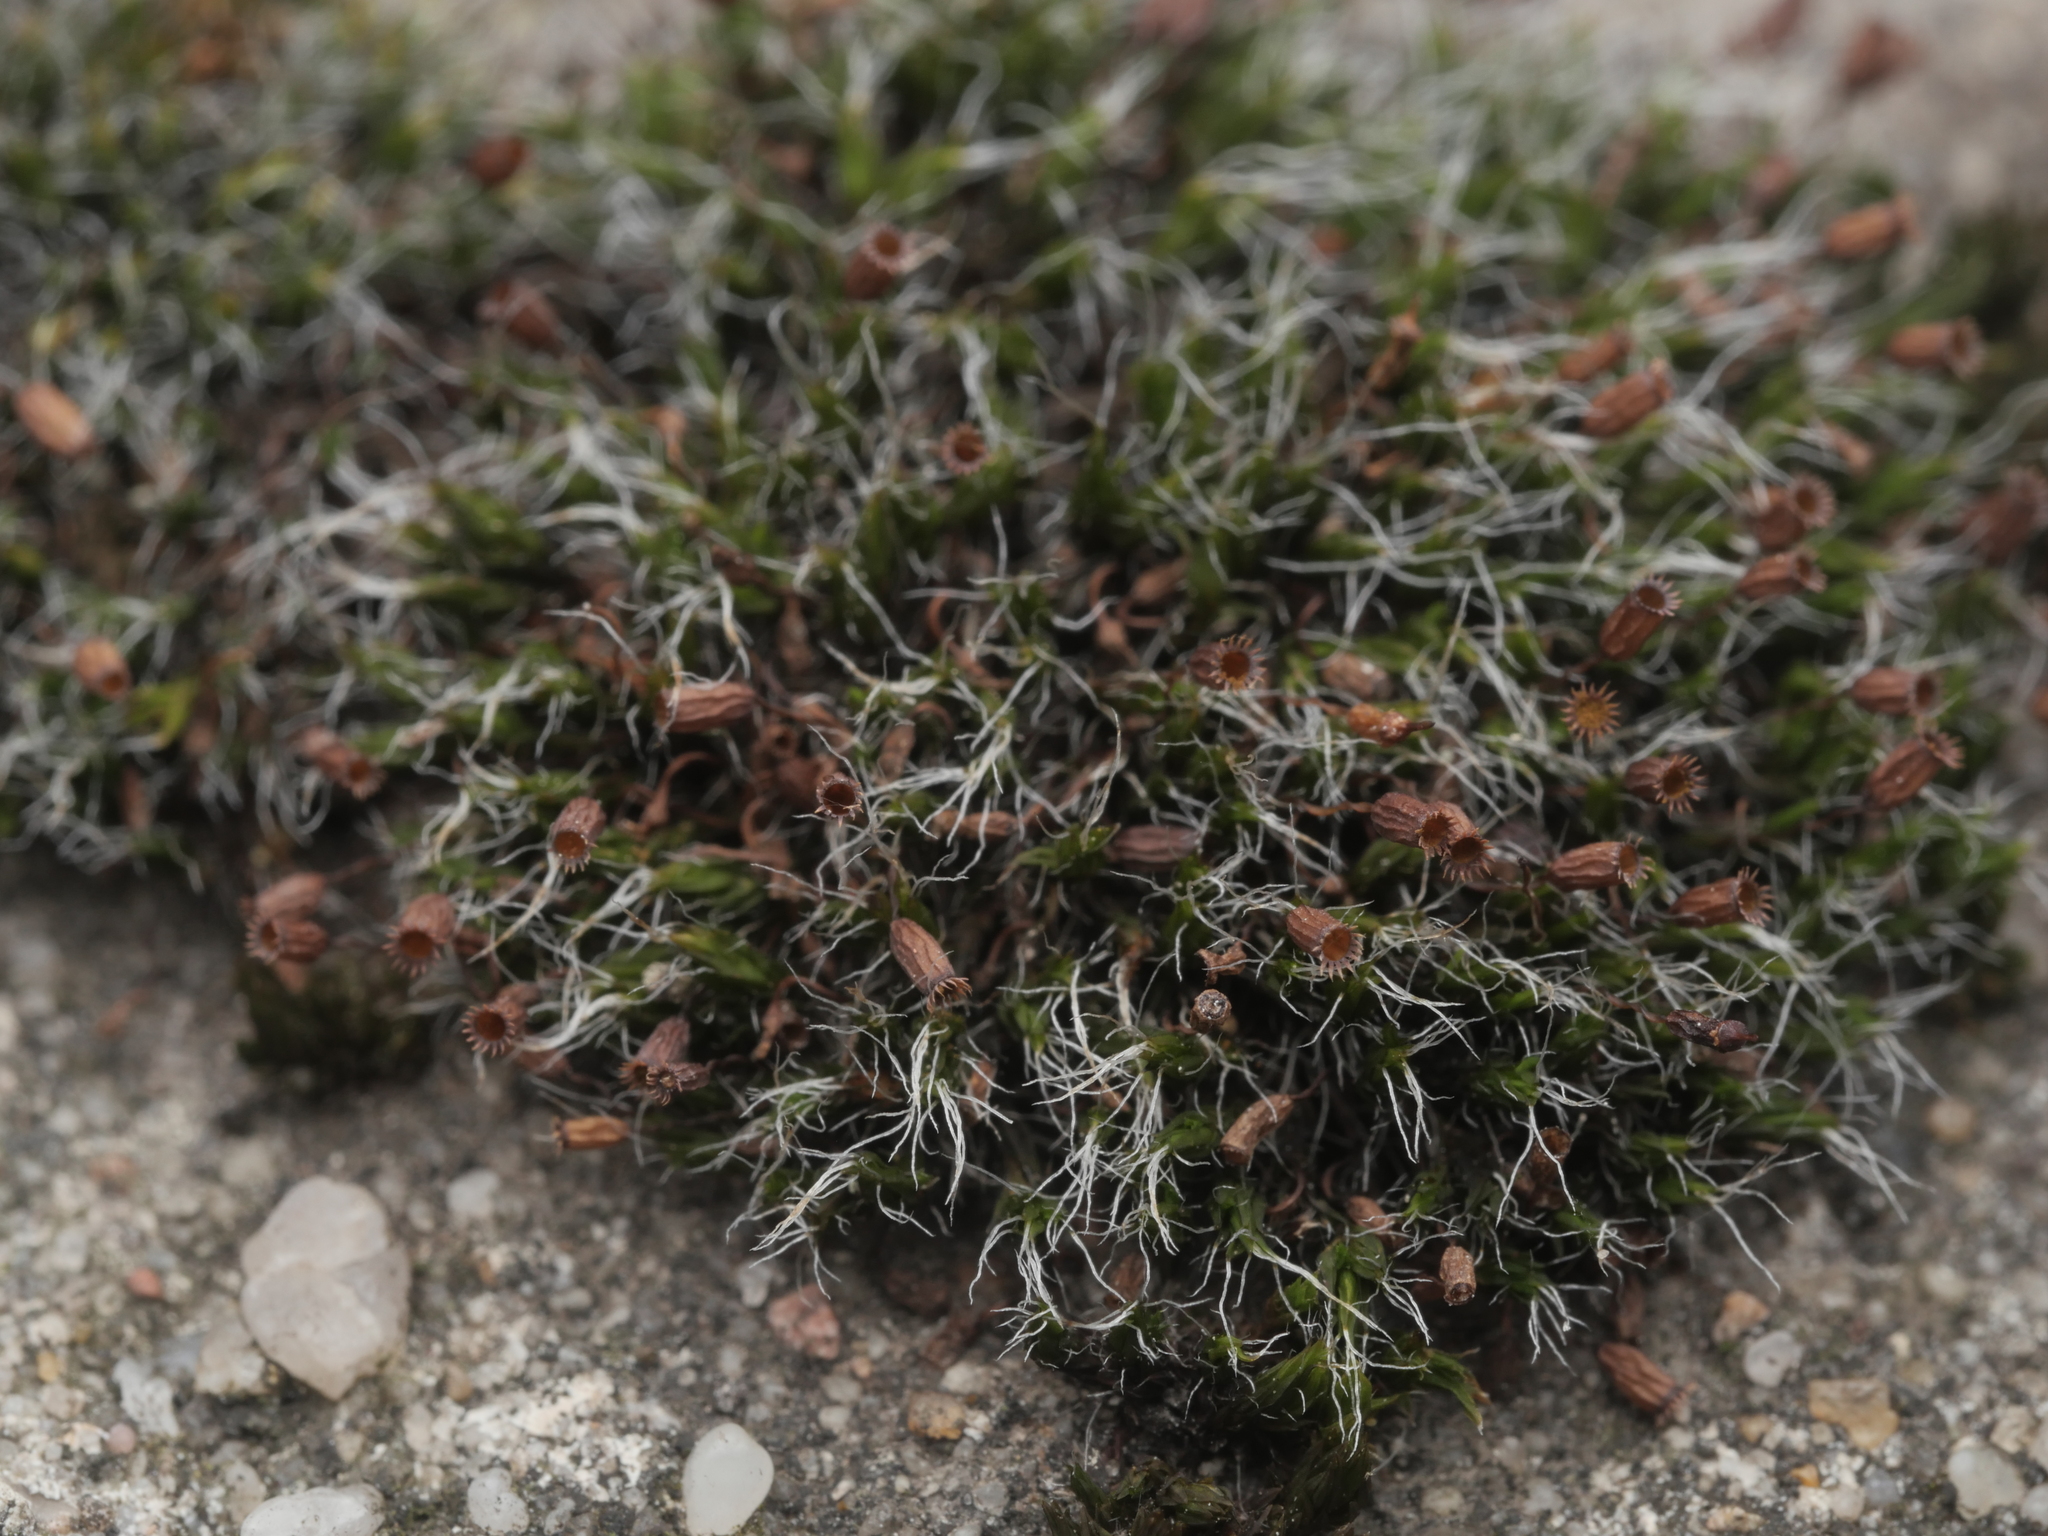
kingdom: Plantae
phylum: Bryophyta
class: Bryopsida
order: Grimmiales
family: Grimmiaceae
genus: Grimmia
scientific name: Grimmia pulvinata
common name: Grey-cushioned grimmia
